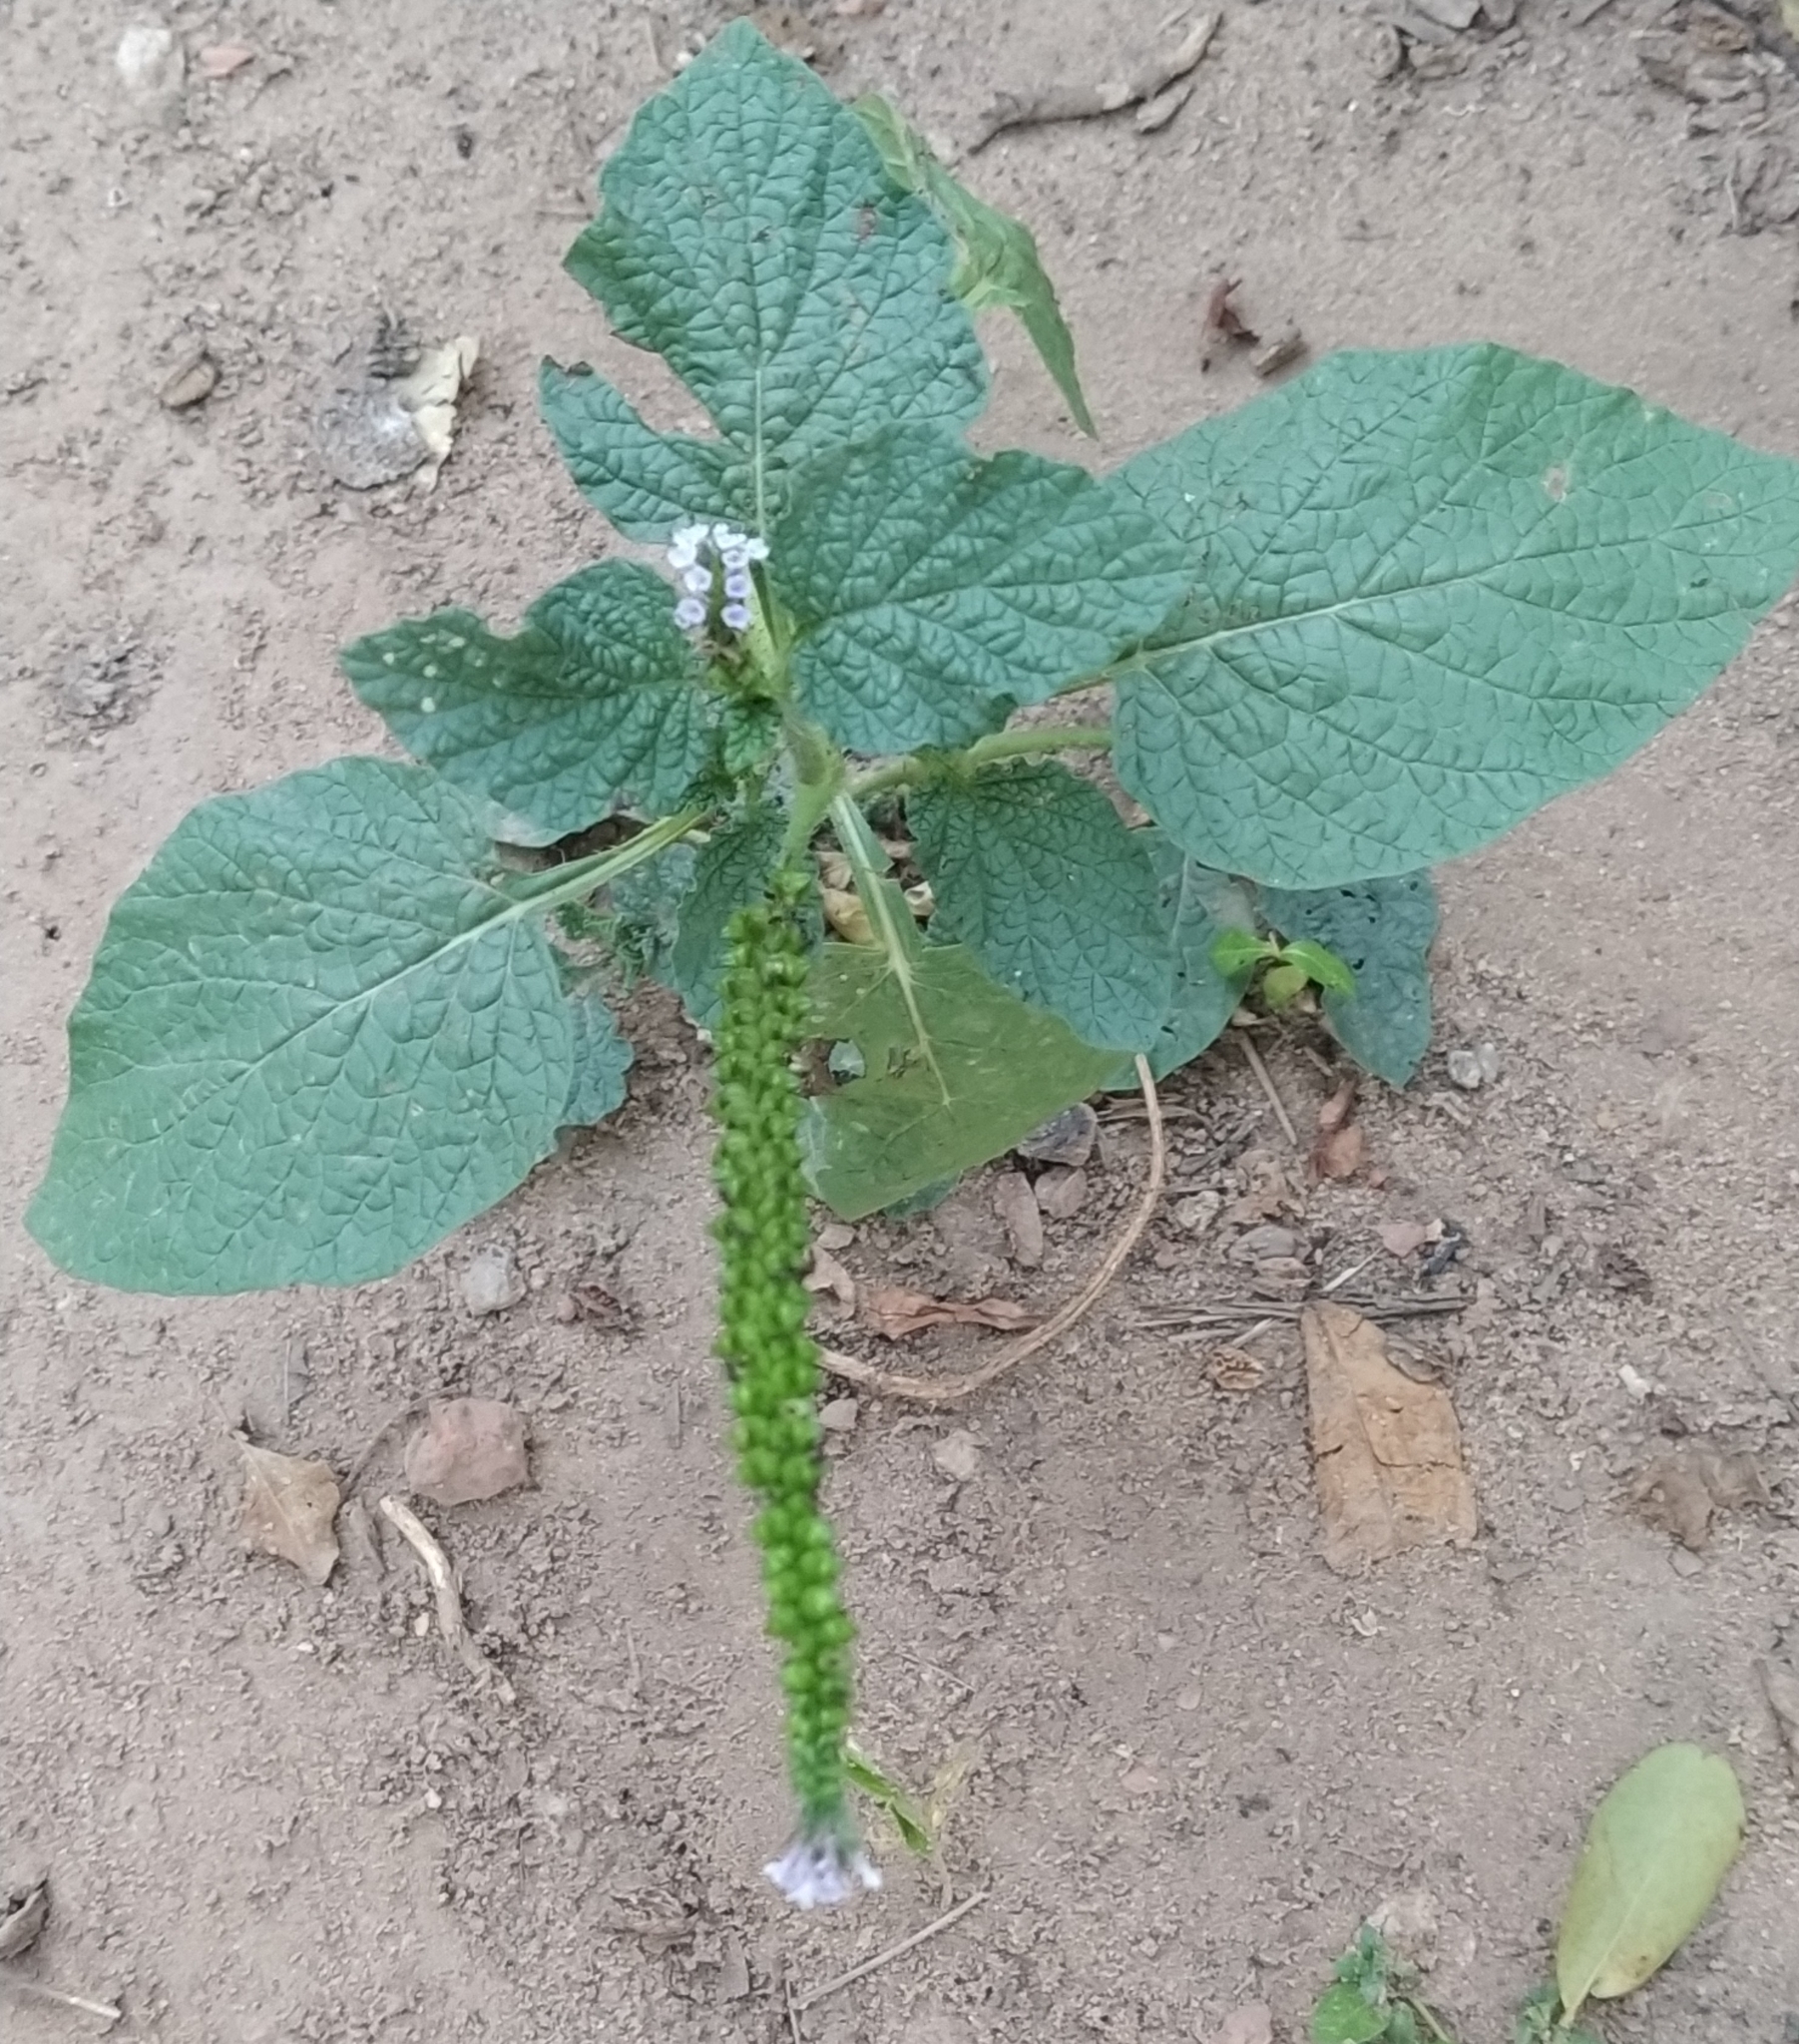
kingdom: Plantae
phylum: Tracheophyta
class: Magnoliopsida
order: Boraginales
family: Heliotropiaceae
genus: Heliotropium
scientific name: Heliotropium indicum
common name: Indian heliotrope
